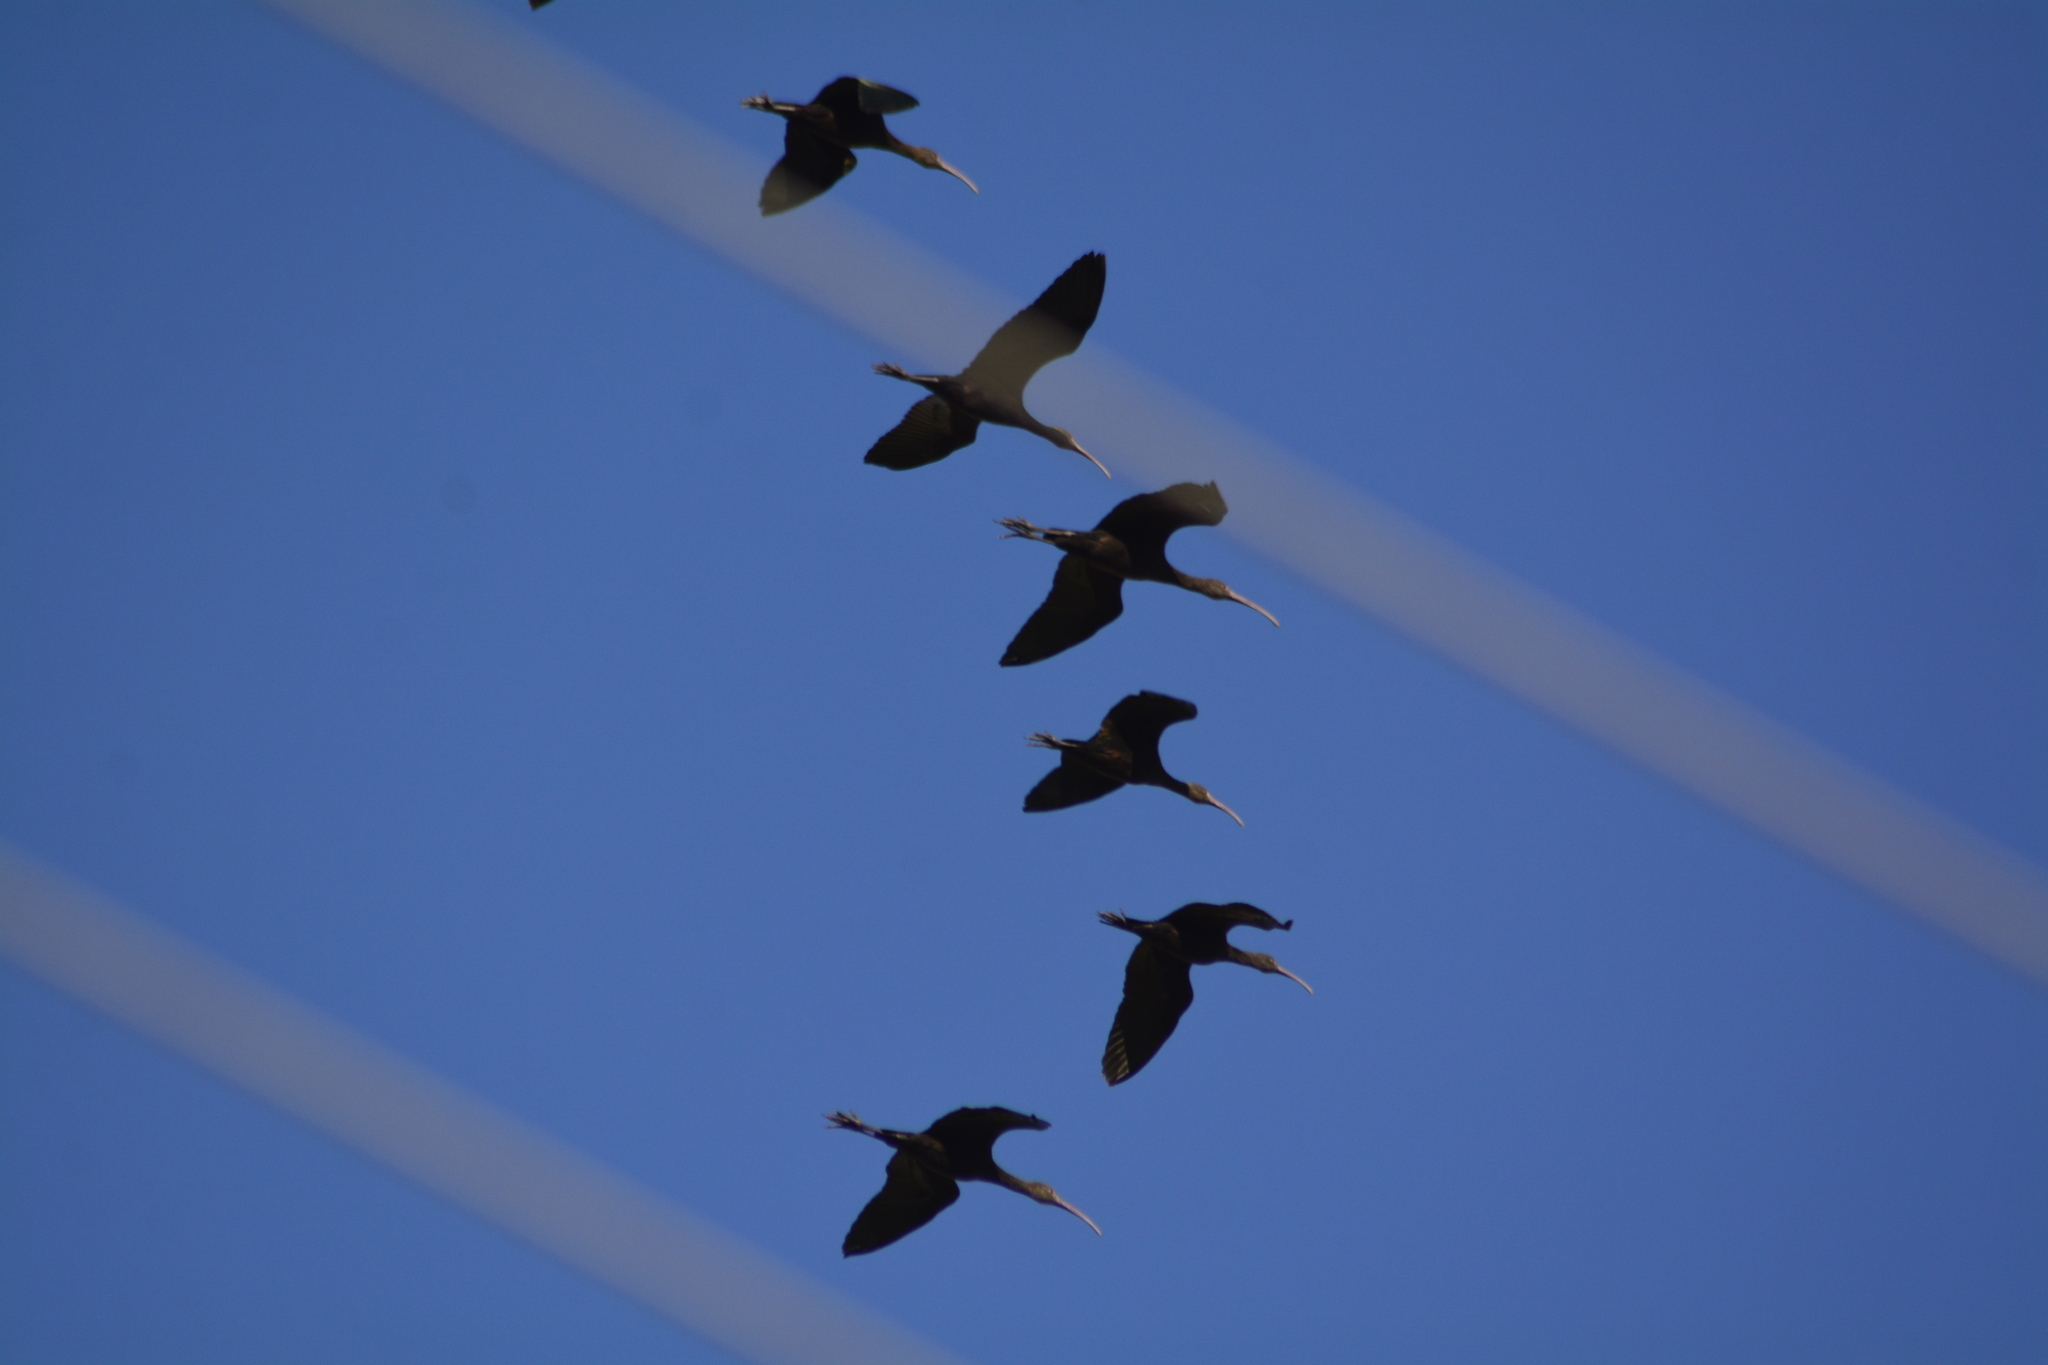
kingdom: Animalia
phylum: Chordata
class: Aves
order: Pelecaniformes
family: Threskiornithidae
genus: Plegadis
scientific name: Plegadis chihi
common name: White-faced ibis
